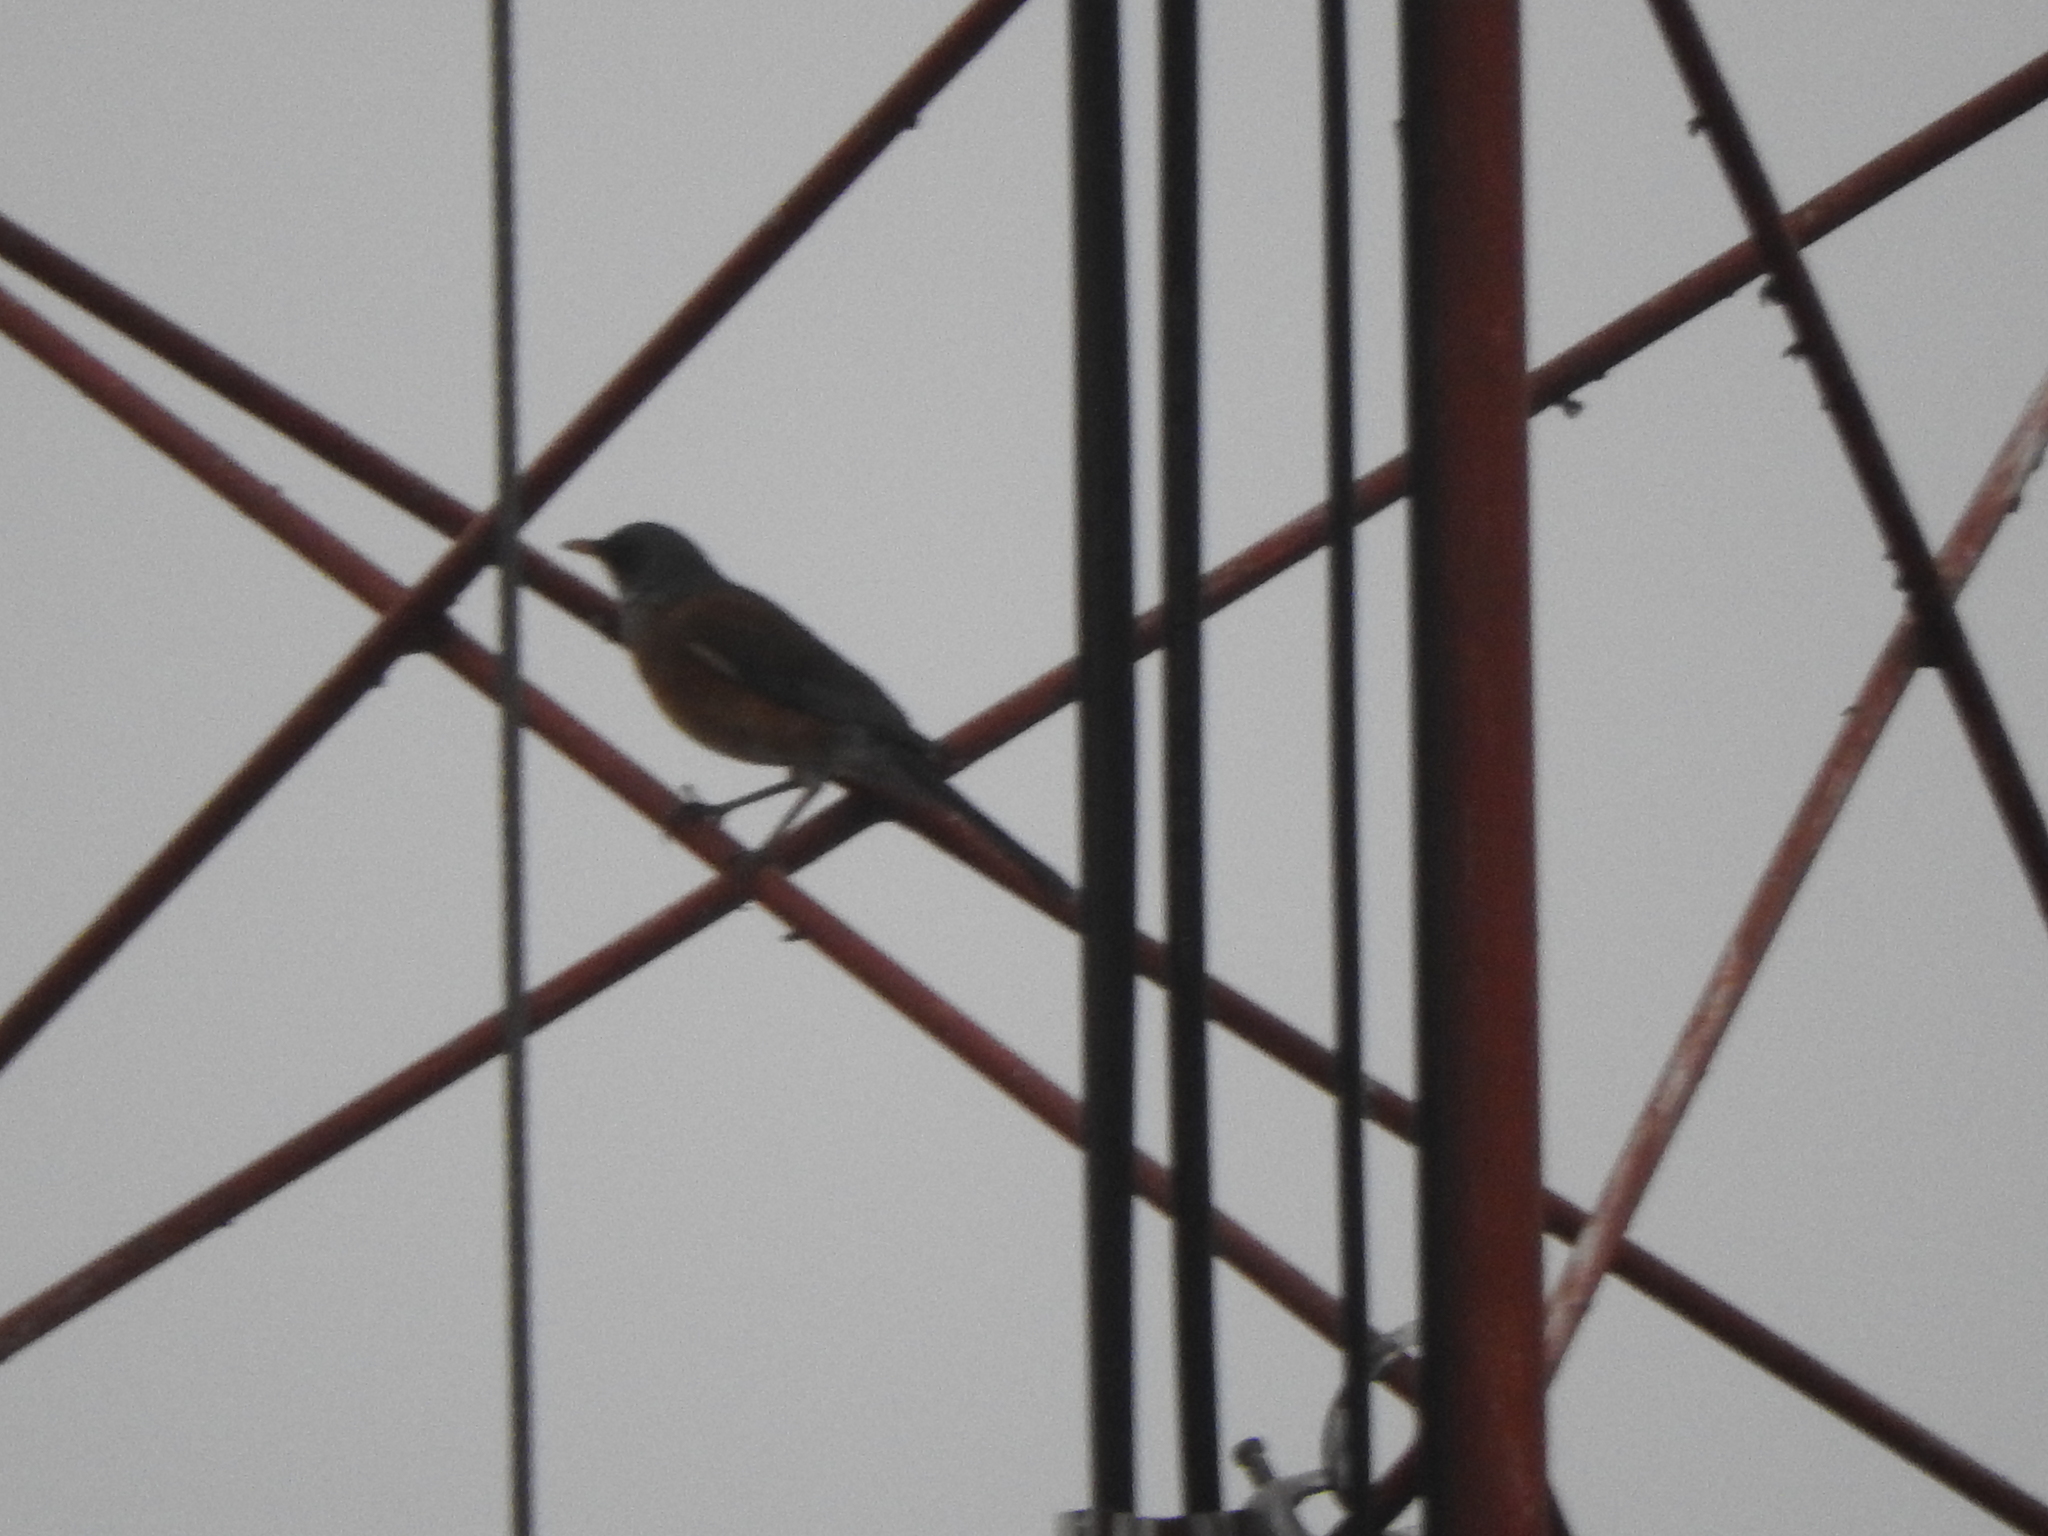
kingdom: Animalia
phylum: Chordata
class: Aves
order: Passeriformes
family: Turdidae
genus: Turdus
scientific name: Turdus rufopalliatus
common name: Rufous-backed robin
